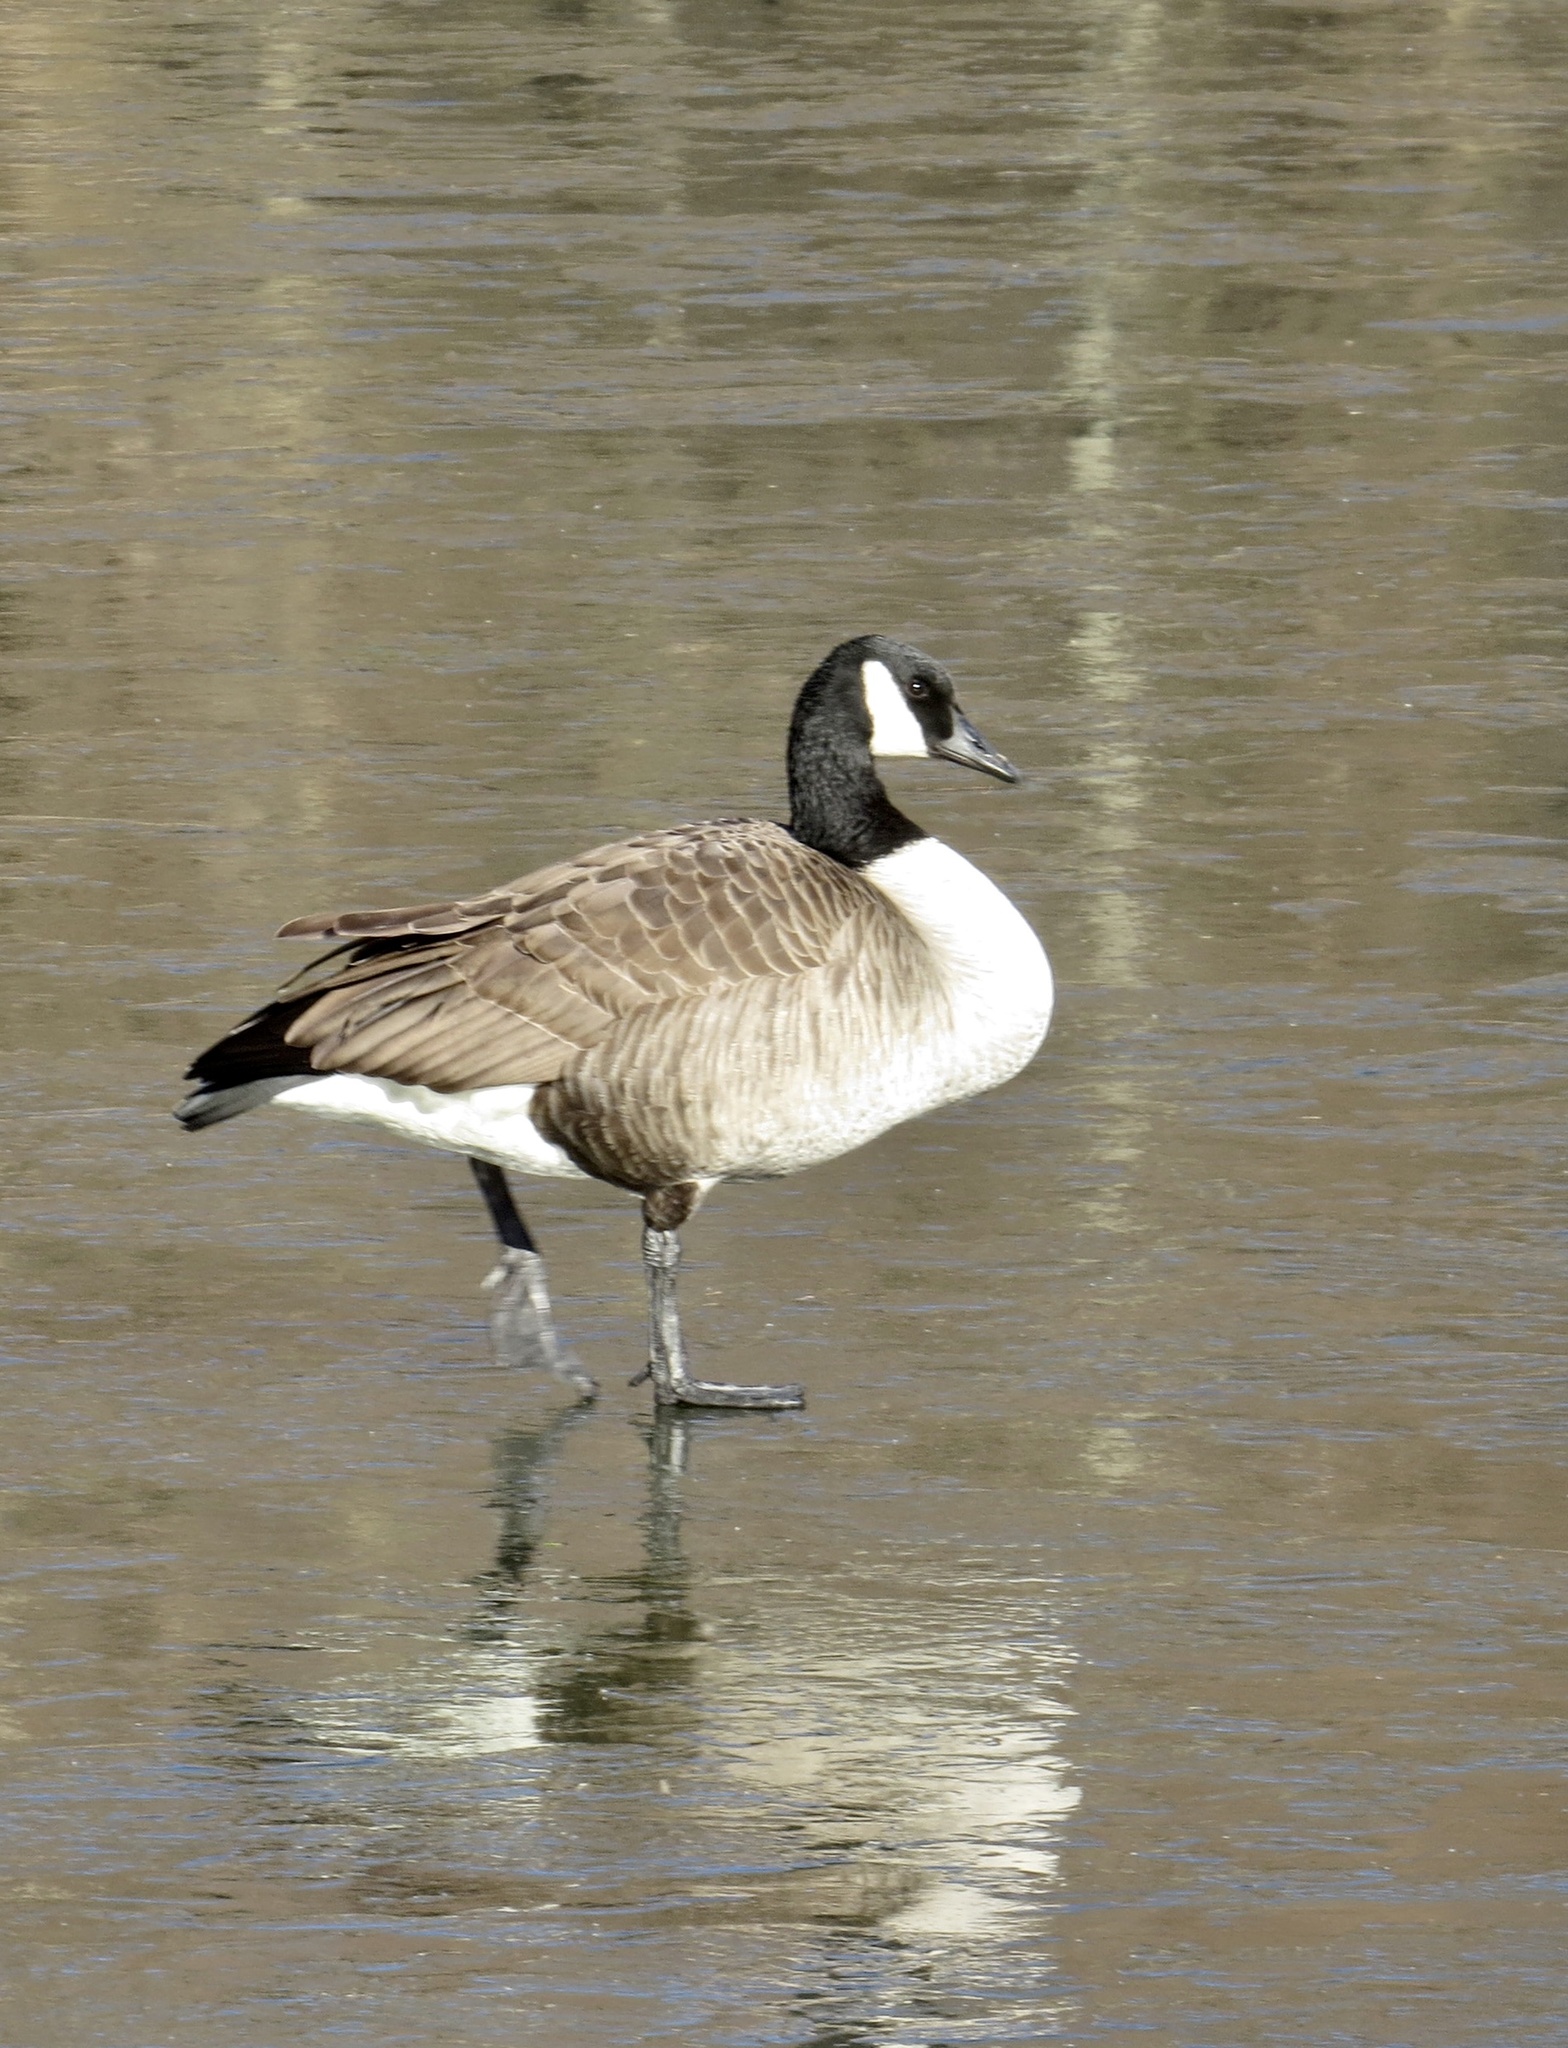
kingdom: Animalia
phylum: Chordata
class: Aves
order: Anseriformes
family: Anatidae
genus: Branta
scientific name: Branta canadensis
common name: Canada goose
